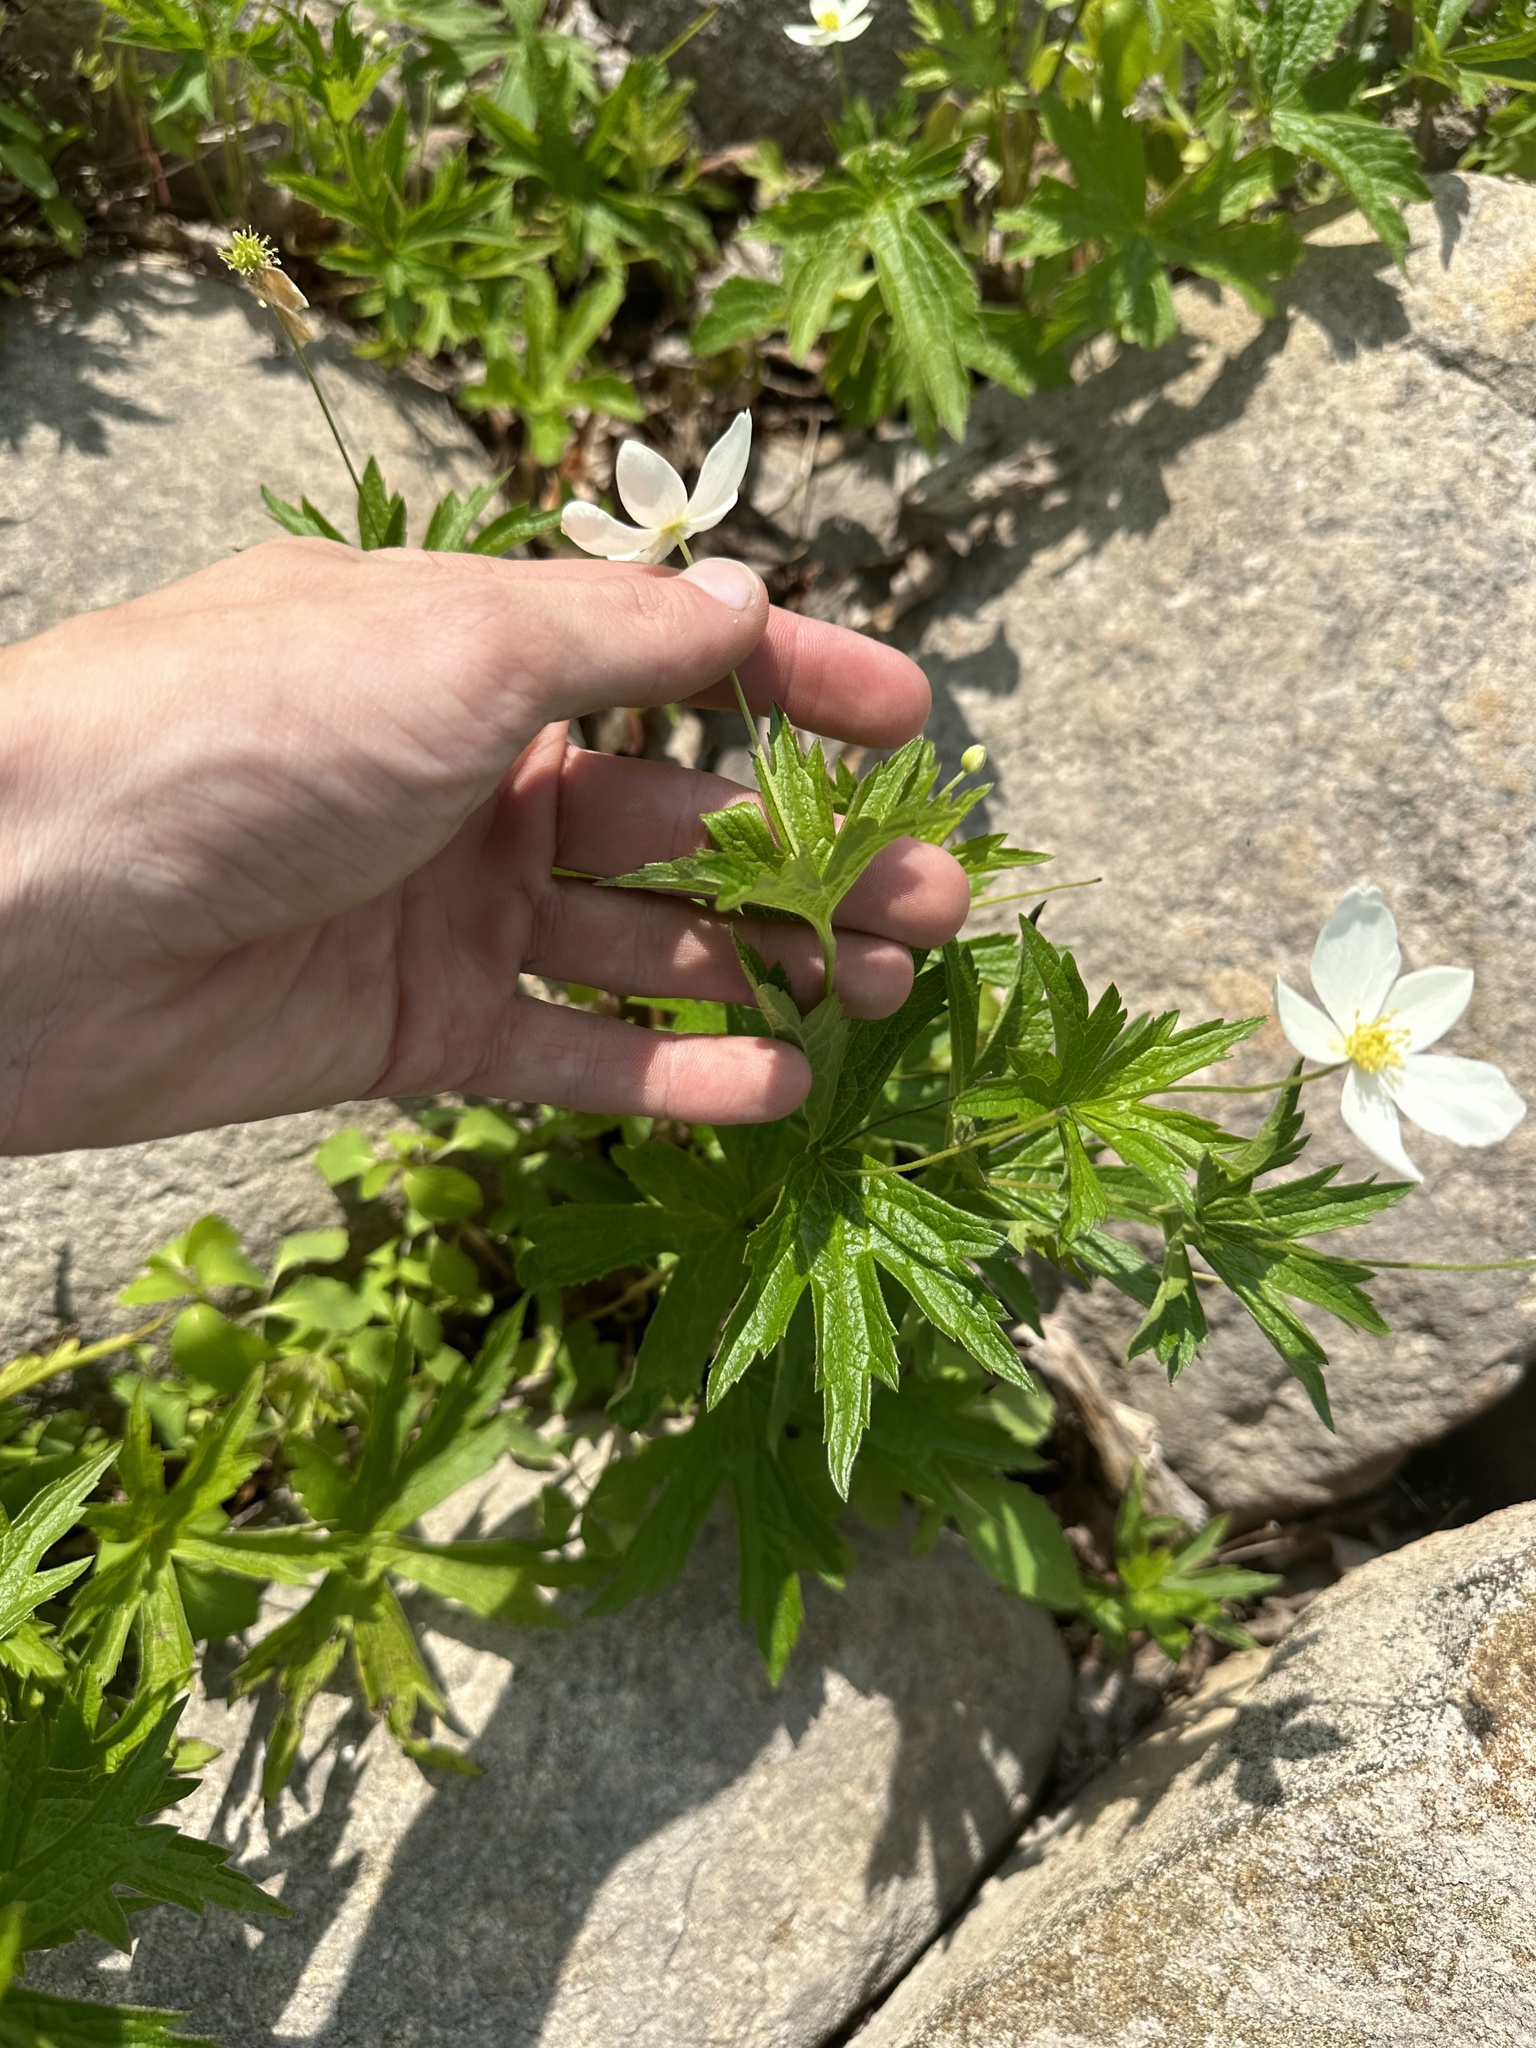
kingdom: Plantae
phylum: Tracheophyta
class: Magnoliopsida
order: Ranunculales
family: Ranunculaceae
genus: Anemonastrum
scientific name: Anemonastrum canadense
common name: Canada anemone
